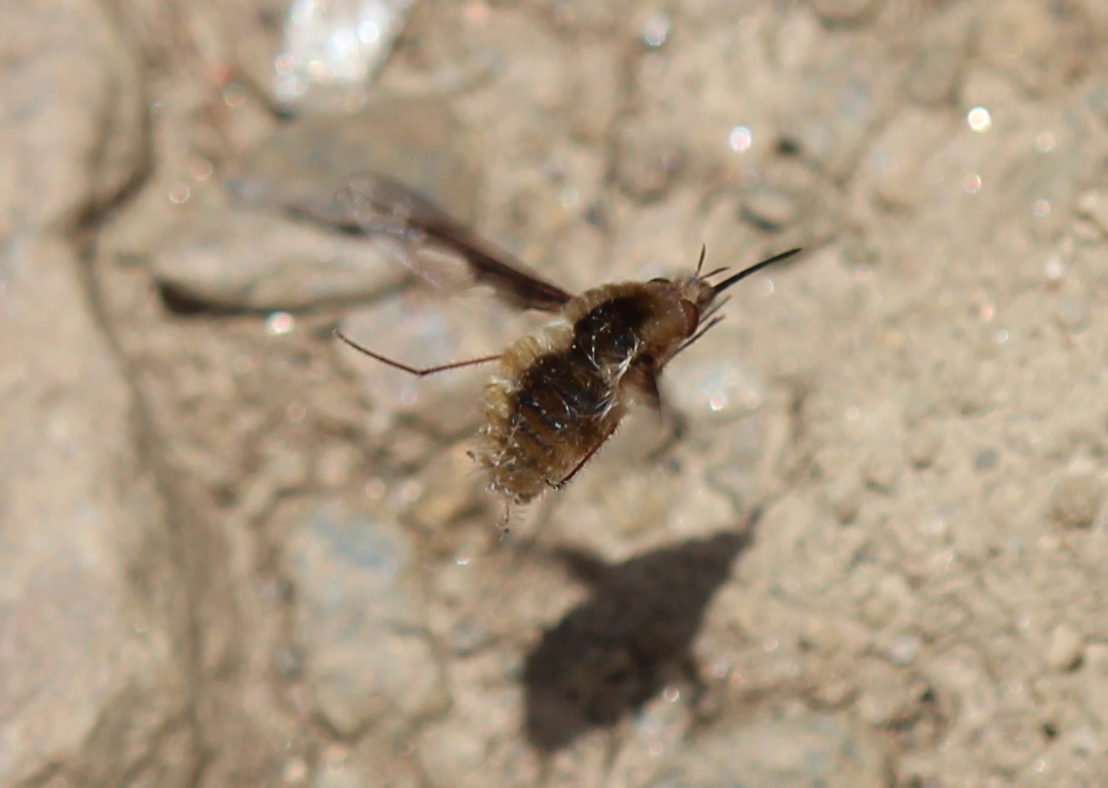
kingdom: Animalia
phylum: Arthropoda
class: Insecta
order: Diptera
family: Bombyliidae
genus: Bombylius
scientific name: Bombylius major
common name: Bee fly
